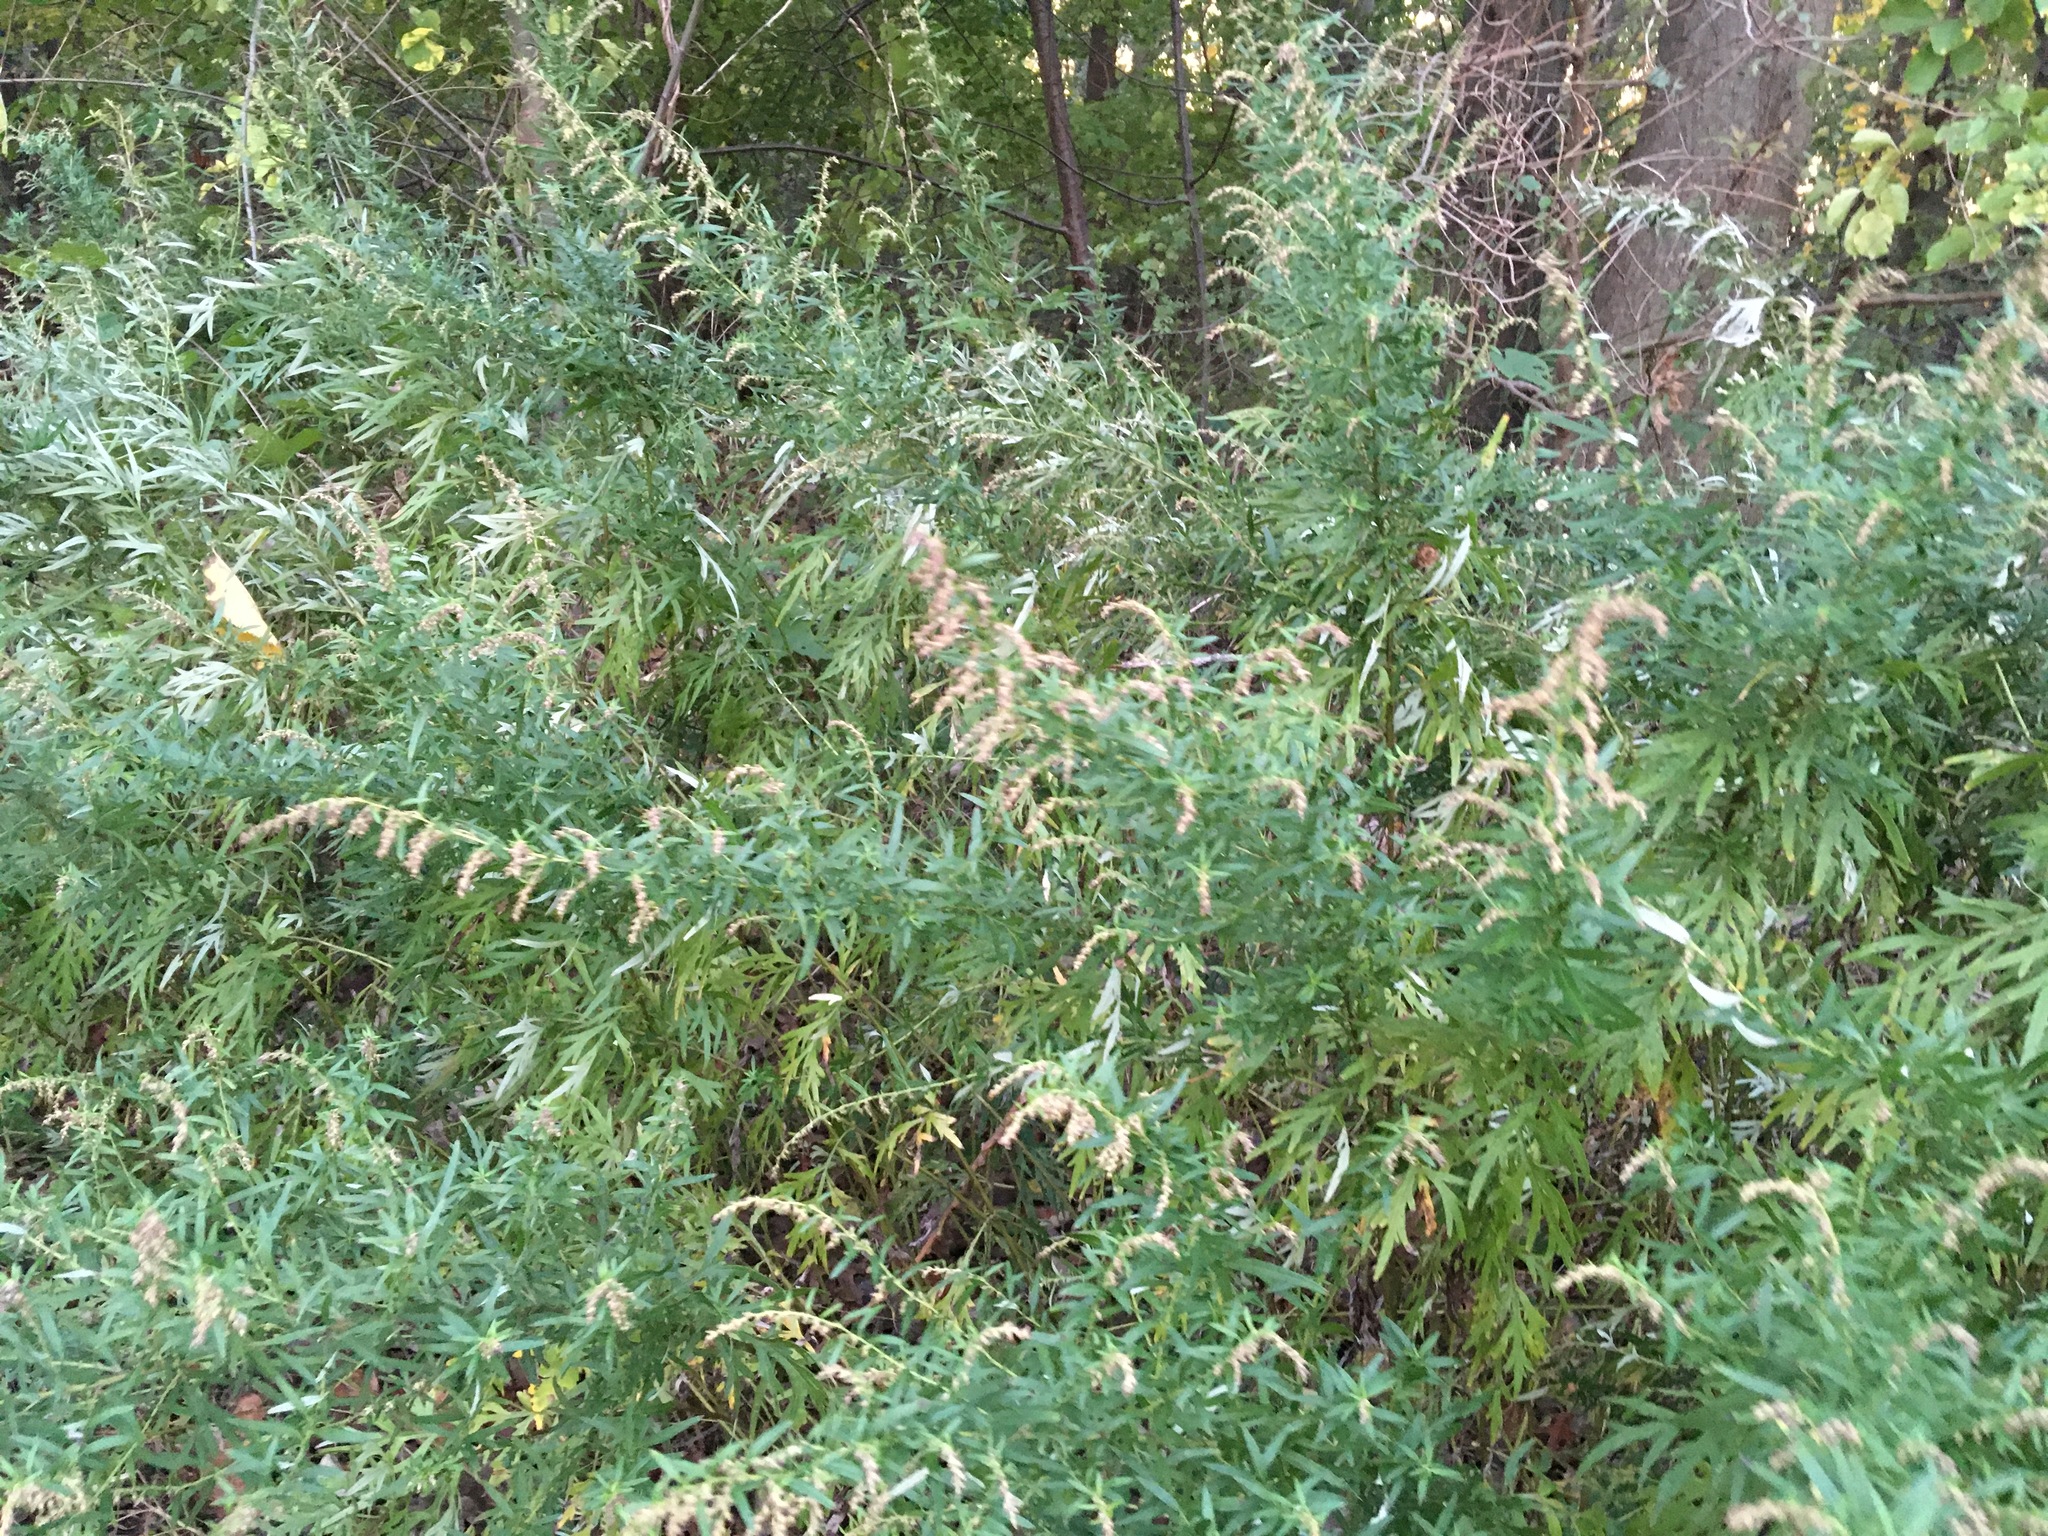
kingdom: Plantae
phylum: Tracheophyta
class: Magnoliopsida
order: Asterales
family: Asteraceae
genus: Artemisia
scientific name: Artemisia vulgaris
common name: Mugwort
